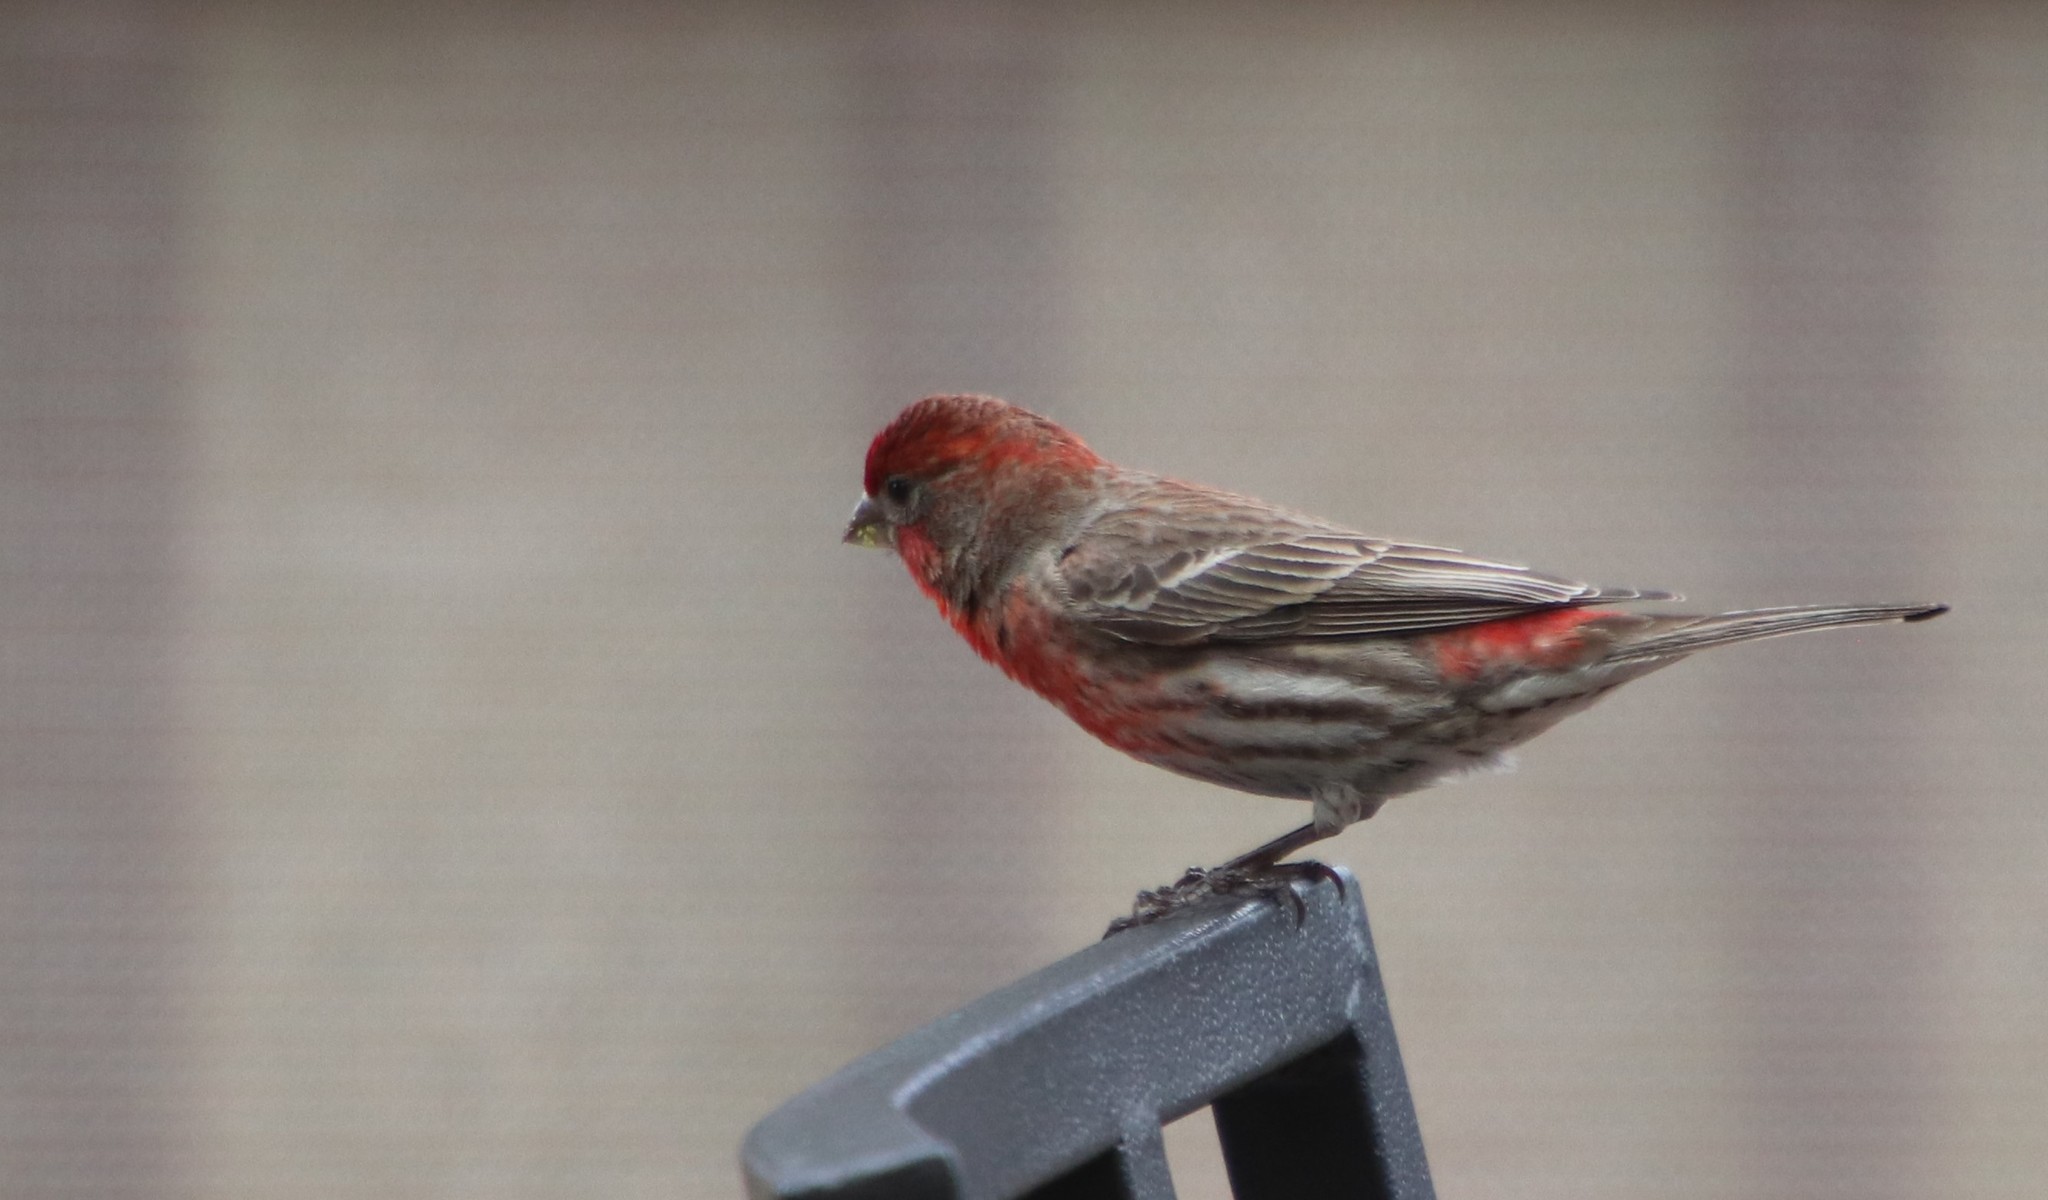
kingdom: Animalia
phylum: Chordata
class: Aves
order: Passeriformes
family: Fringillidae
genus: Haemorhous
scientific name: Haemorhous mexicanus
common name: House finch
